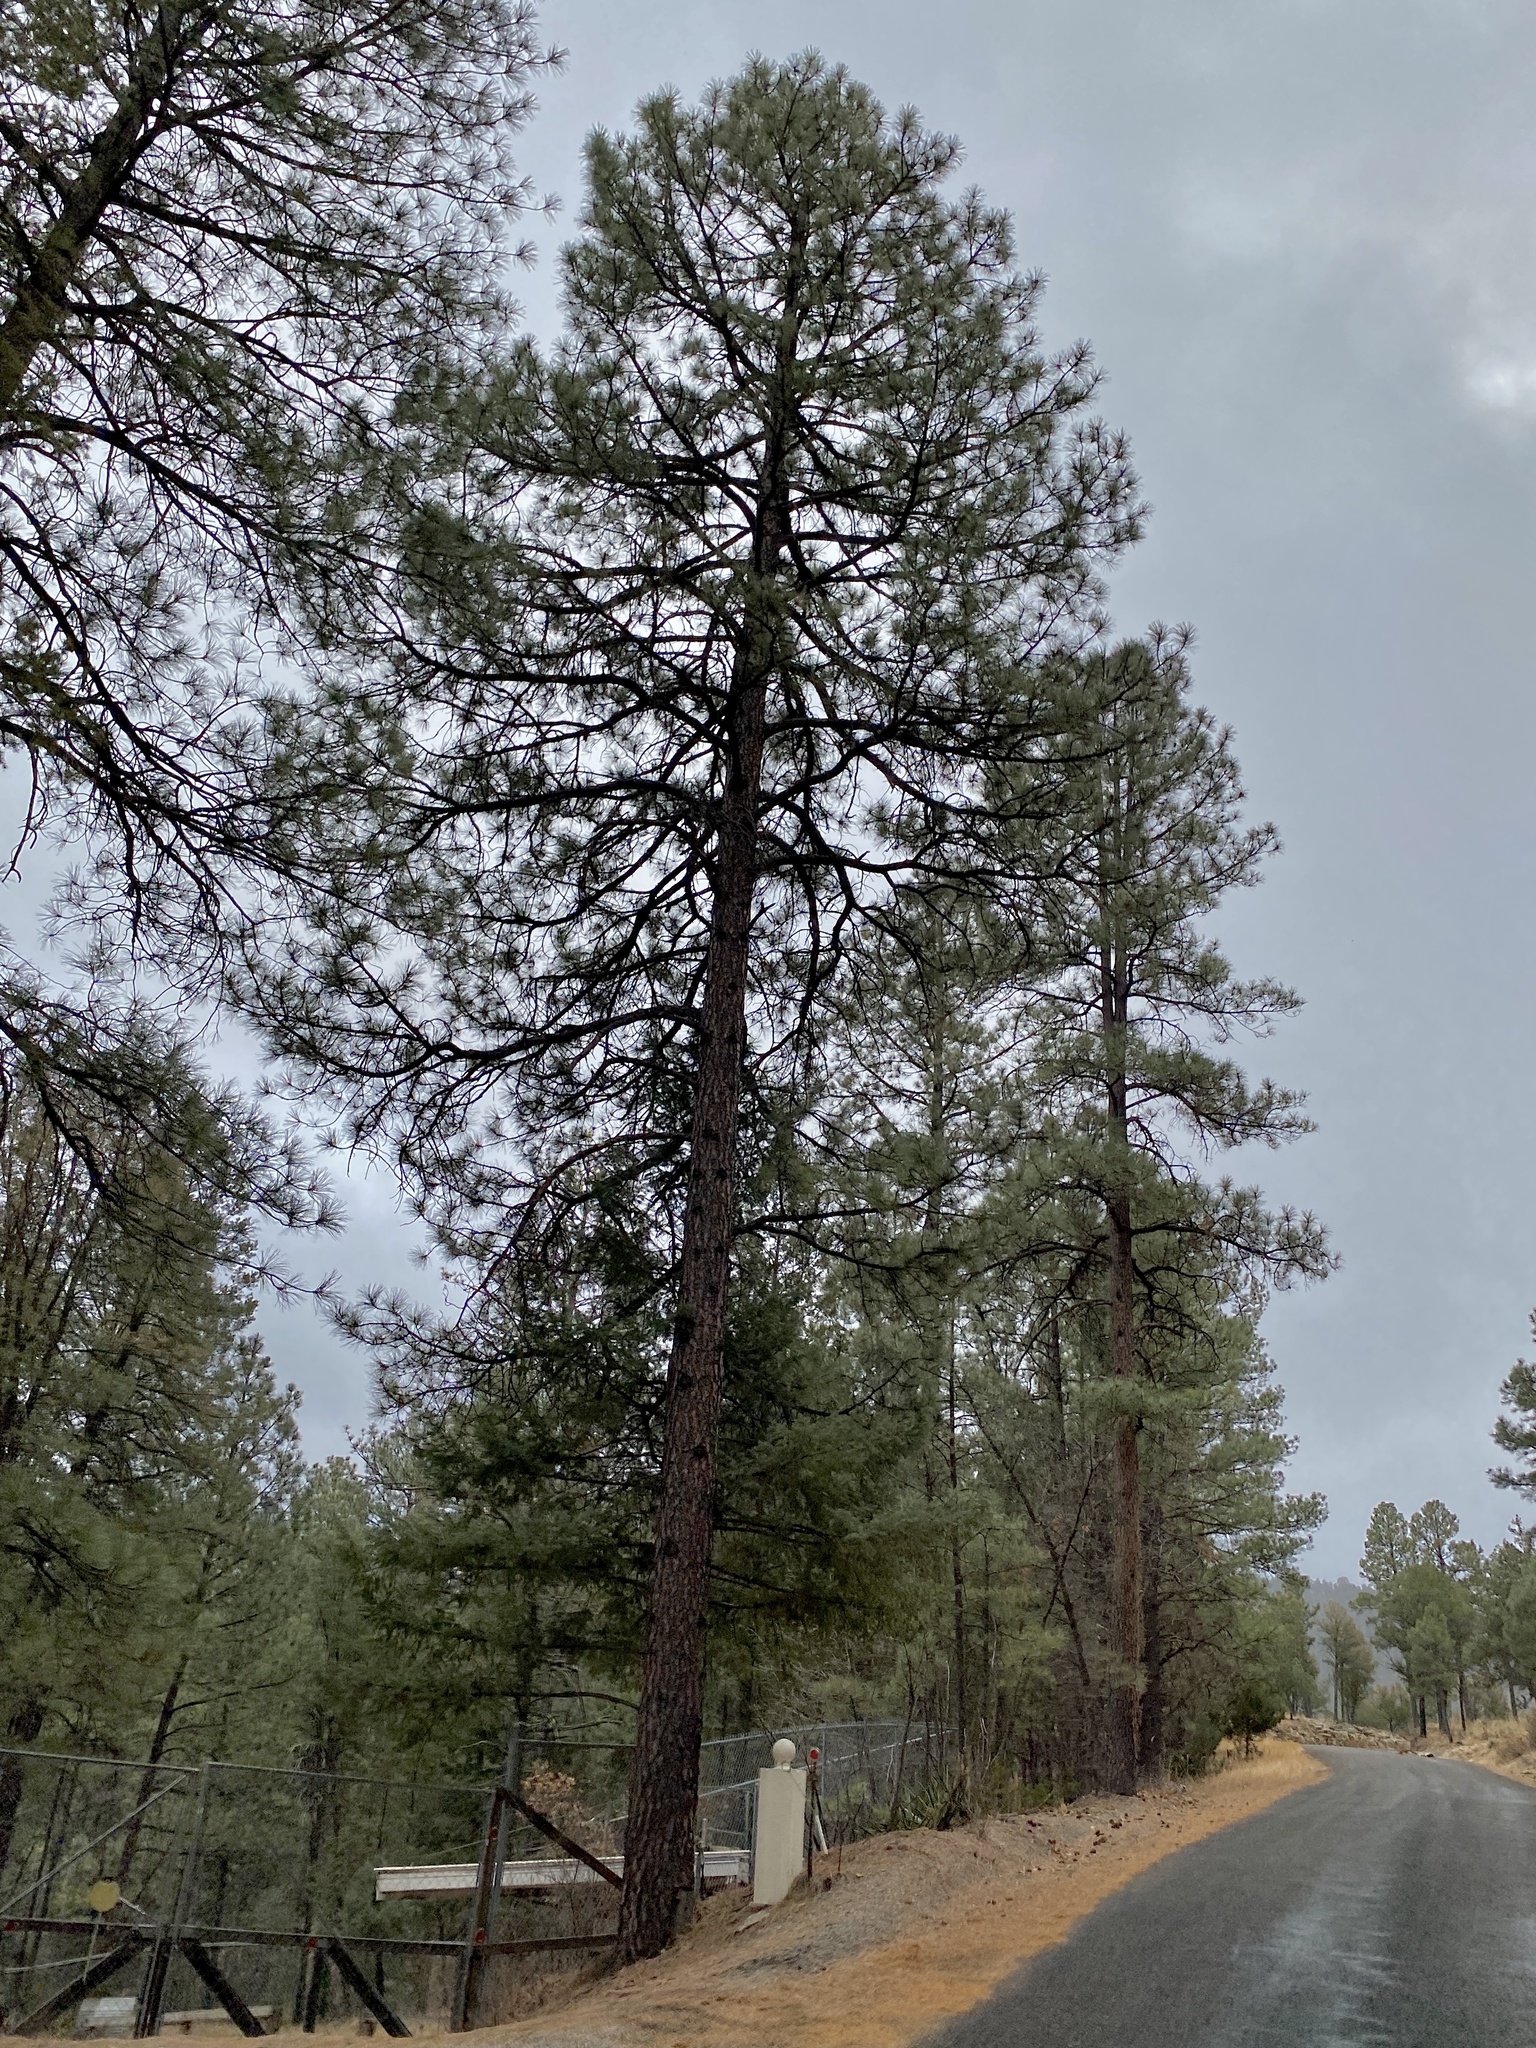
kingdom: Plantae
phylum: Tracheophyta
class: Pinopsida
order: Pinales
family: Pinaceae
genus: Pinus
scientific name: Pinus ponderosa
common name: Western yellow-pine
